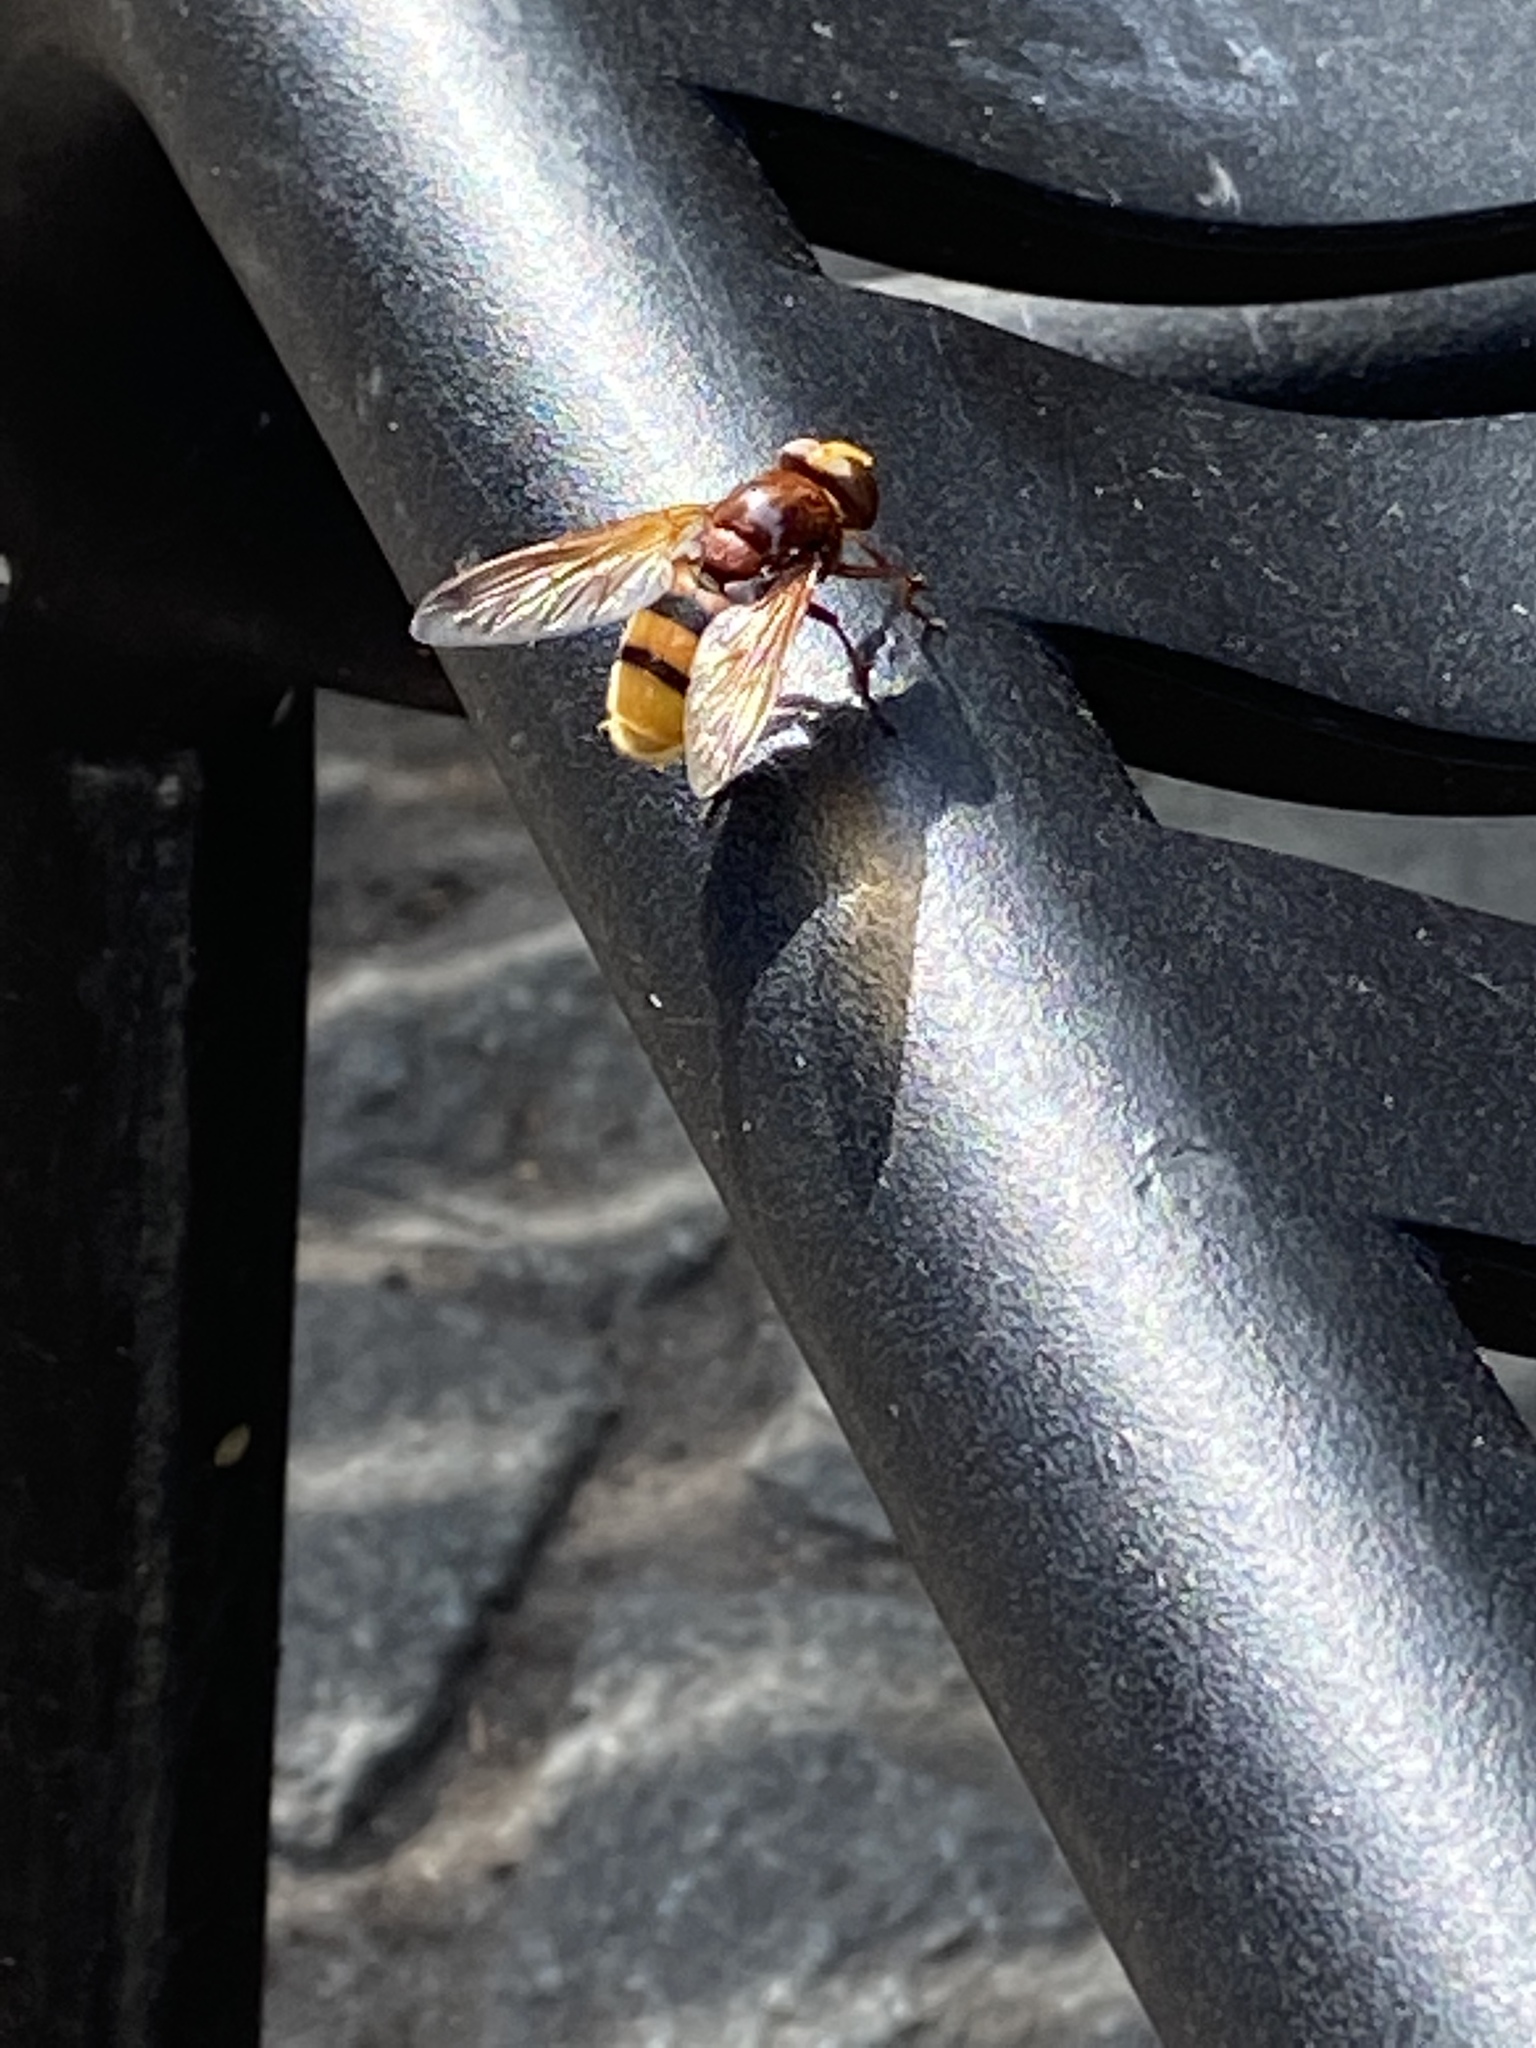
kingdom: Animalia
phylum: Arthropoda
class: Insecta
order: Diptera
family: Syrphidae
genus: Volucella
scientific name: Volucella zonaria
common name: Hornet hoverfly
